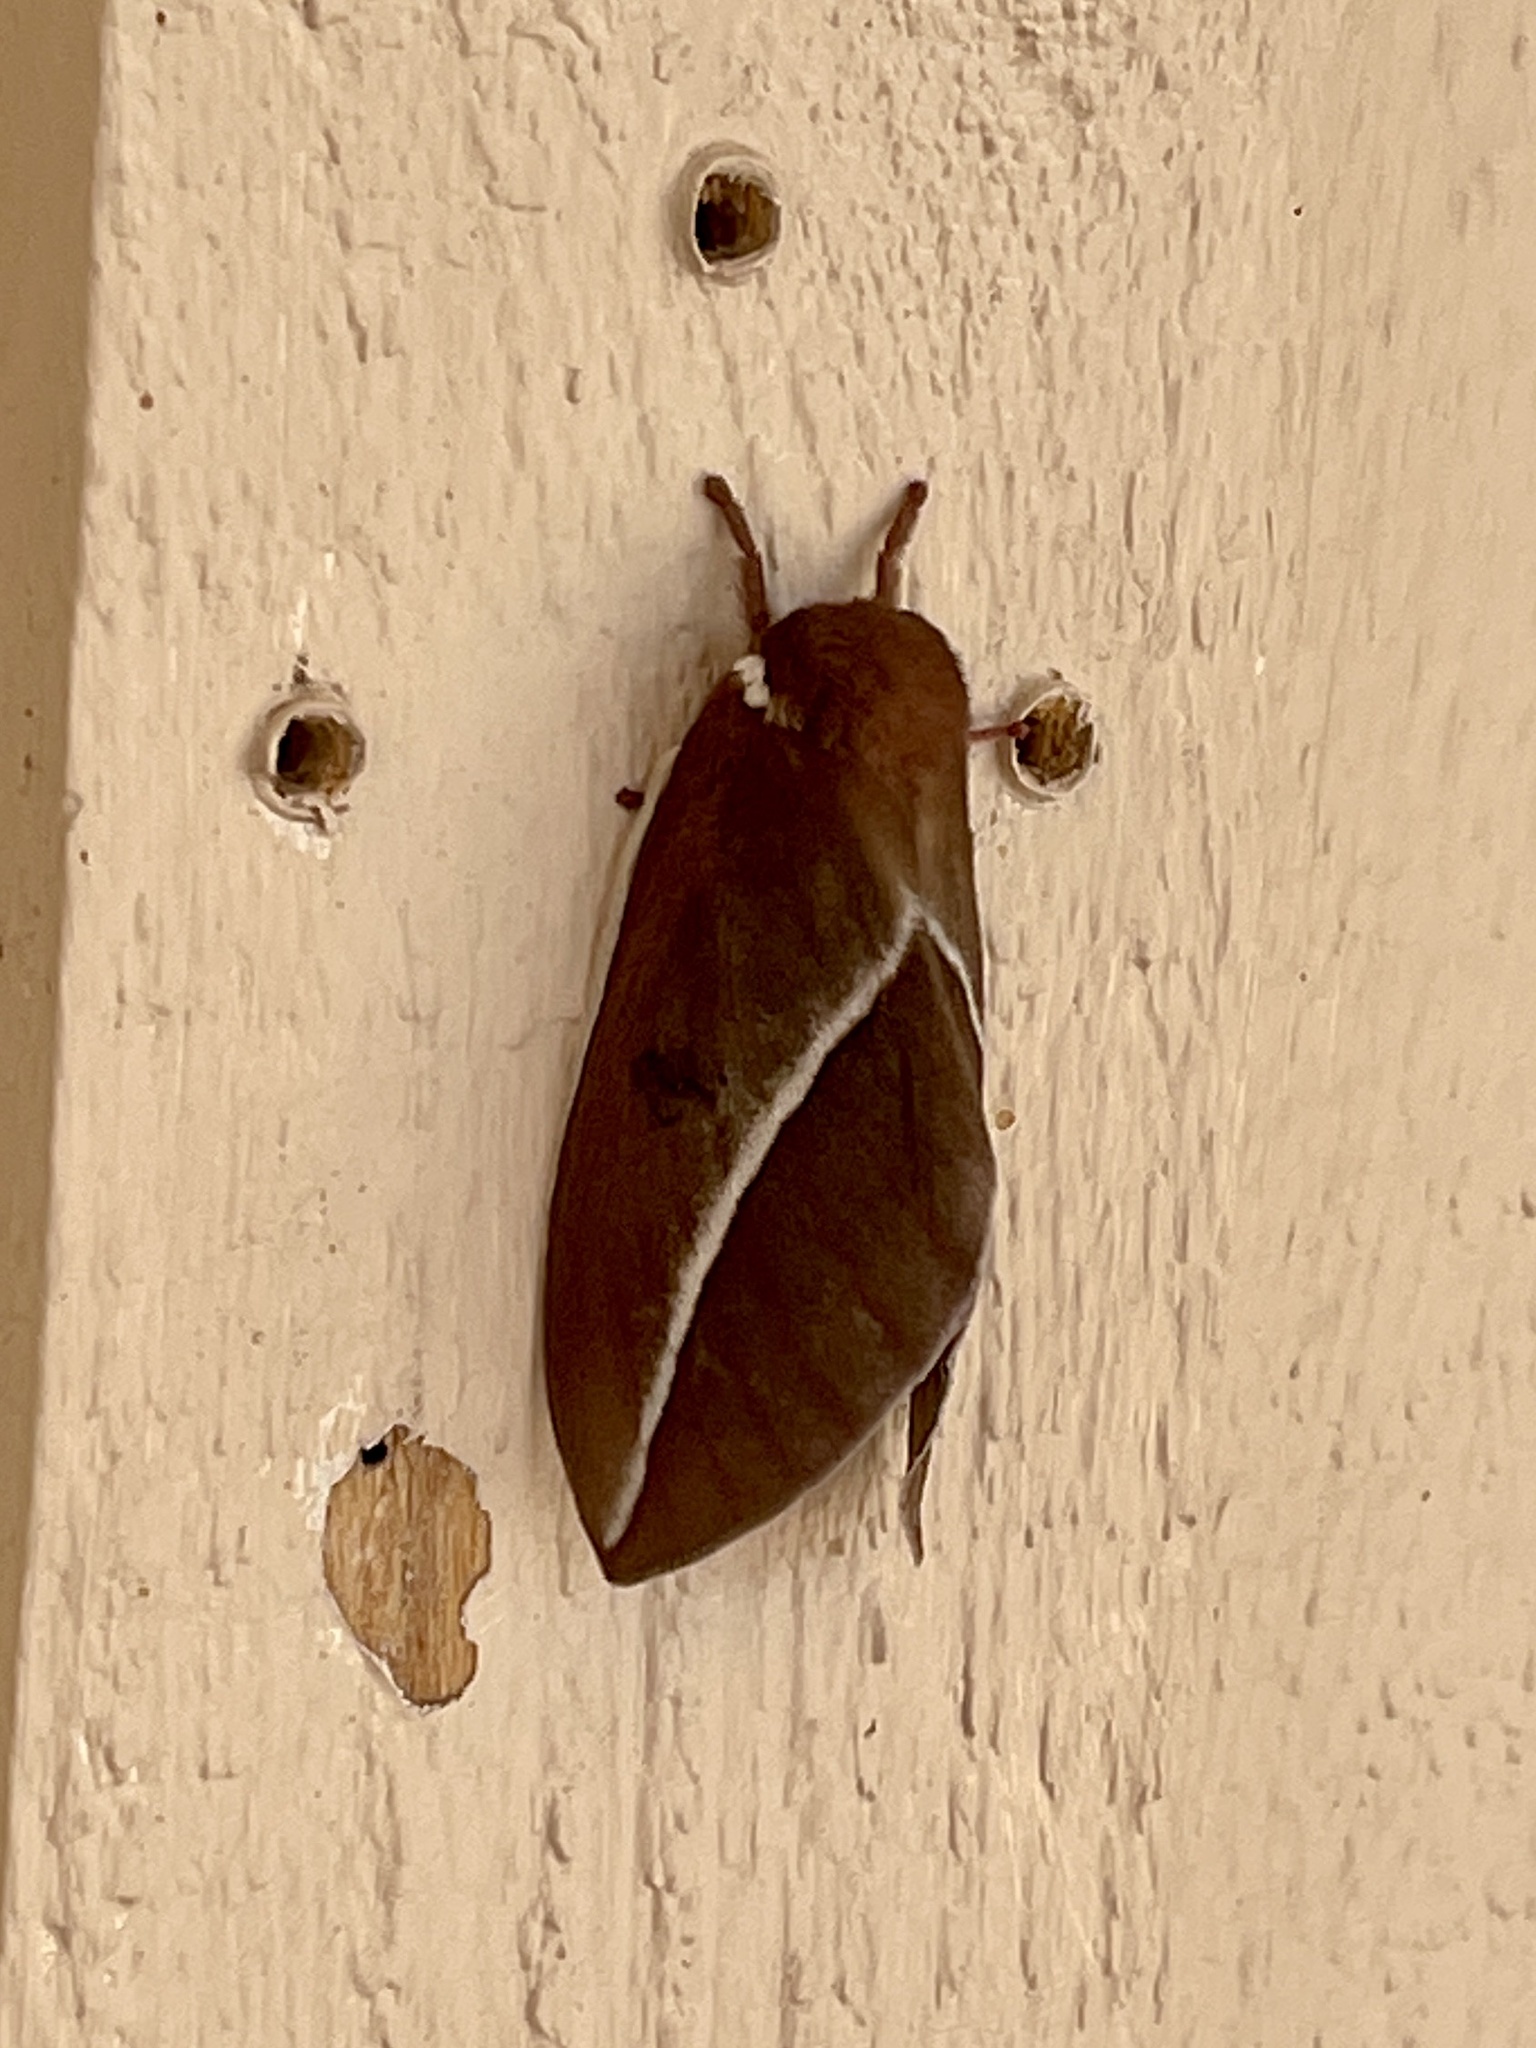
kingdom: Animalia
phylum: Arthropoda
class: Insecta
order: Lepidoptera
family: Saturniidae
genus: Automeris
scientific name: Automeris zephyria
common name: Zephyr eyed silkmoth
